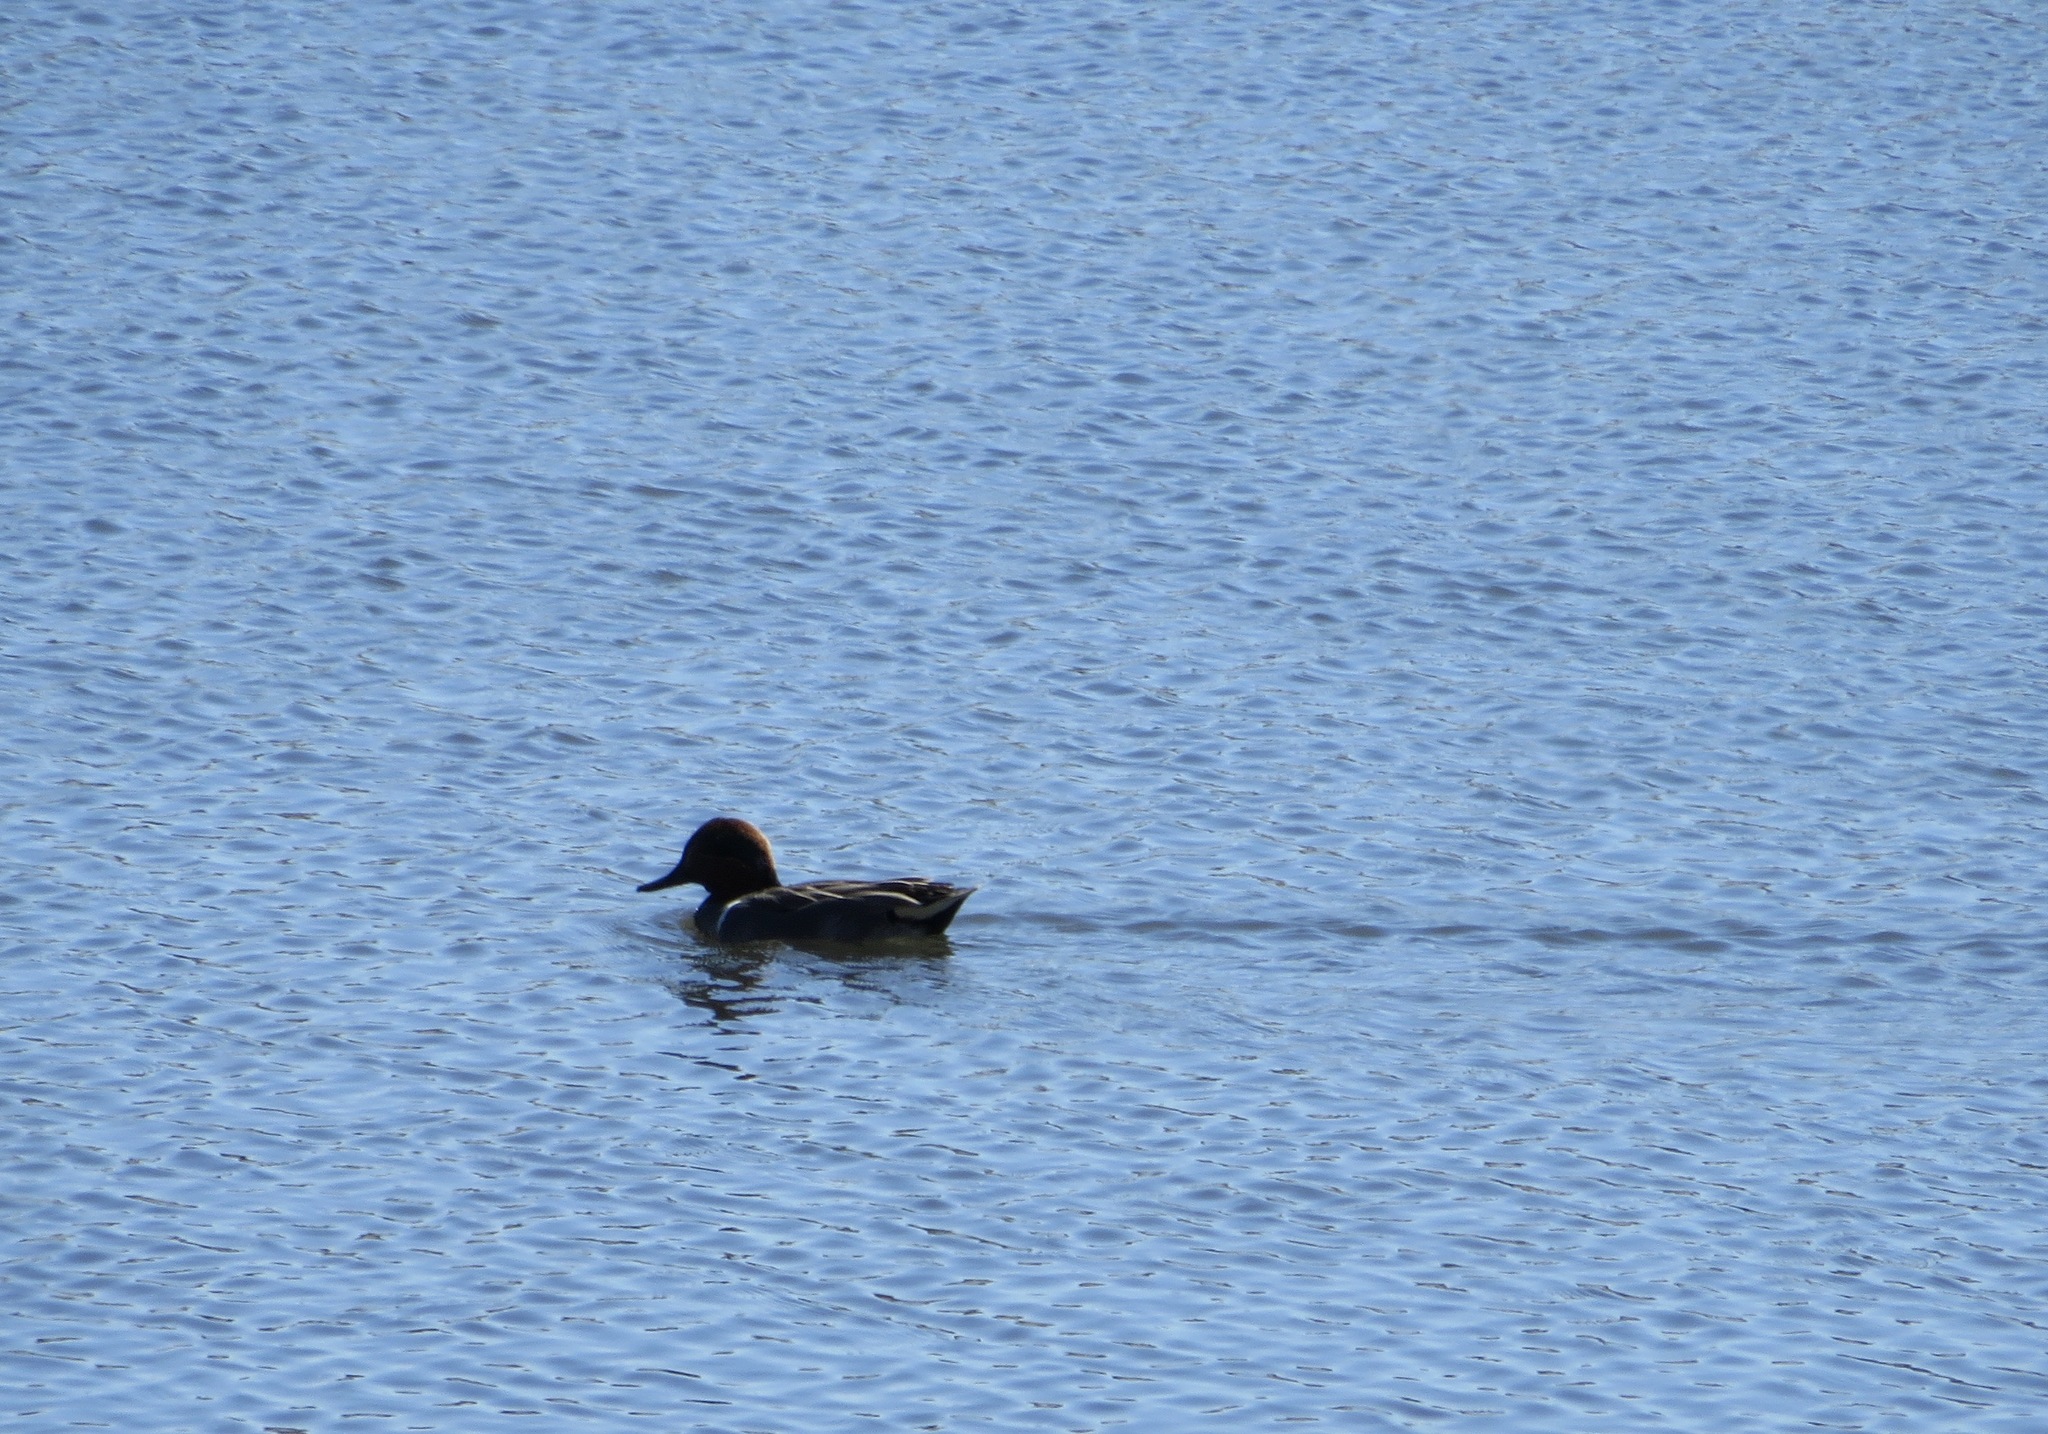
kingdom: Animalia
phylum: Chordata
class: Aves
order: Anseriformes
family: Anatidae
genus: Anas
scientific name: Anas crecca
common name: Eurasian teal
